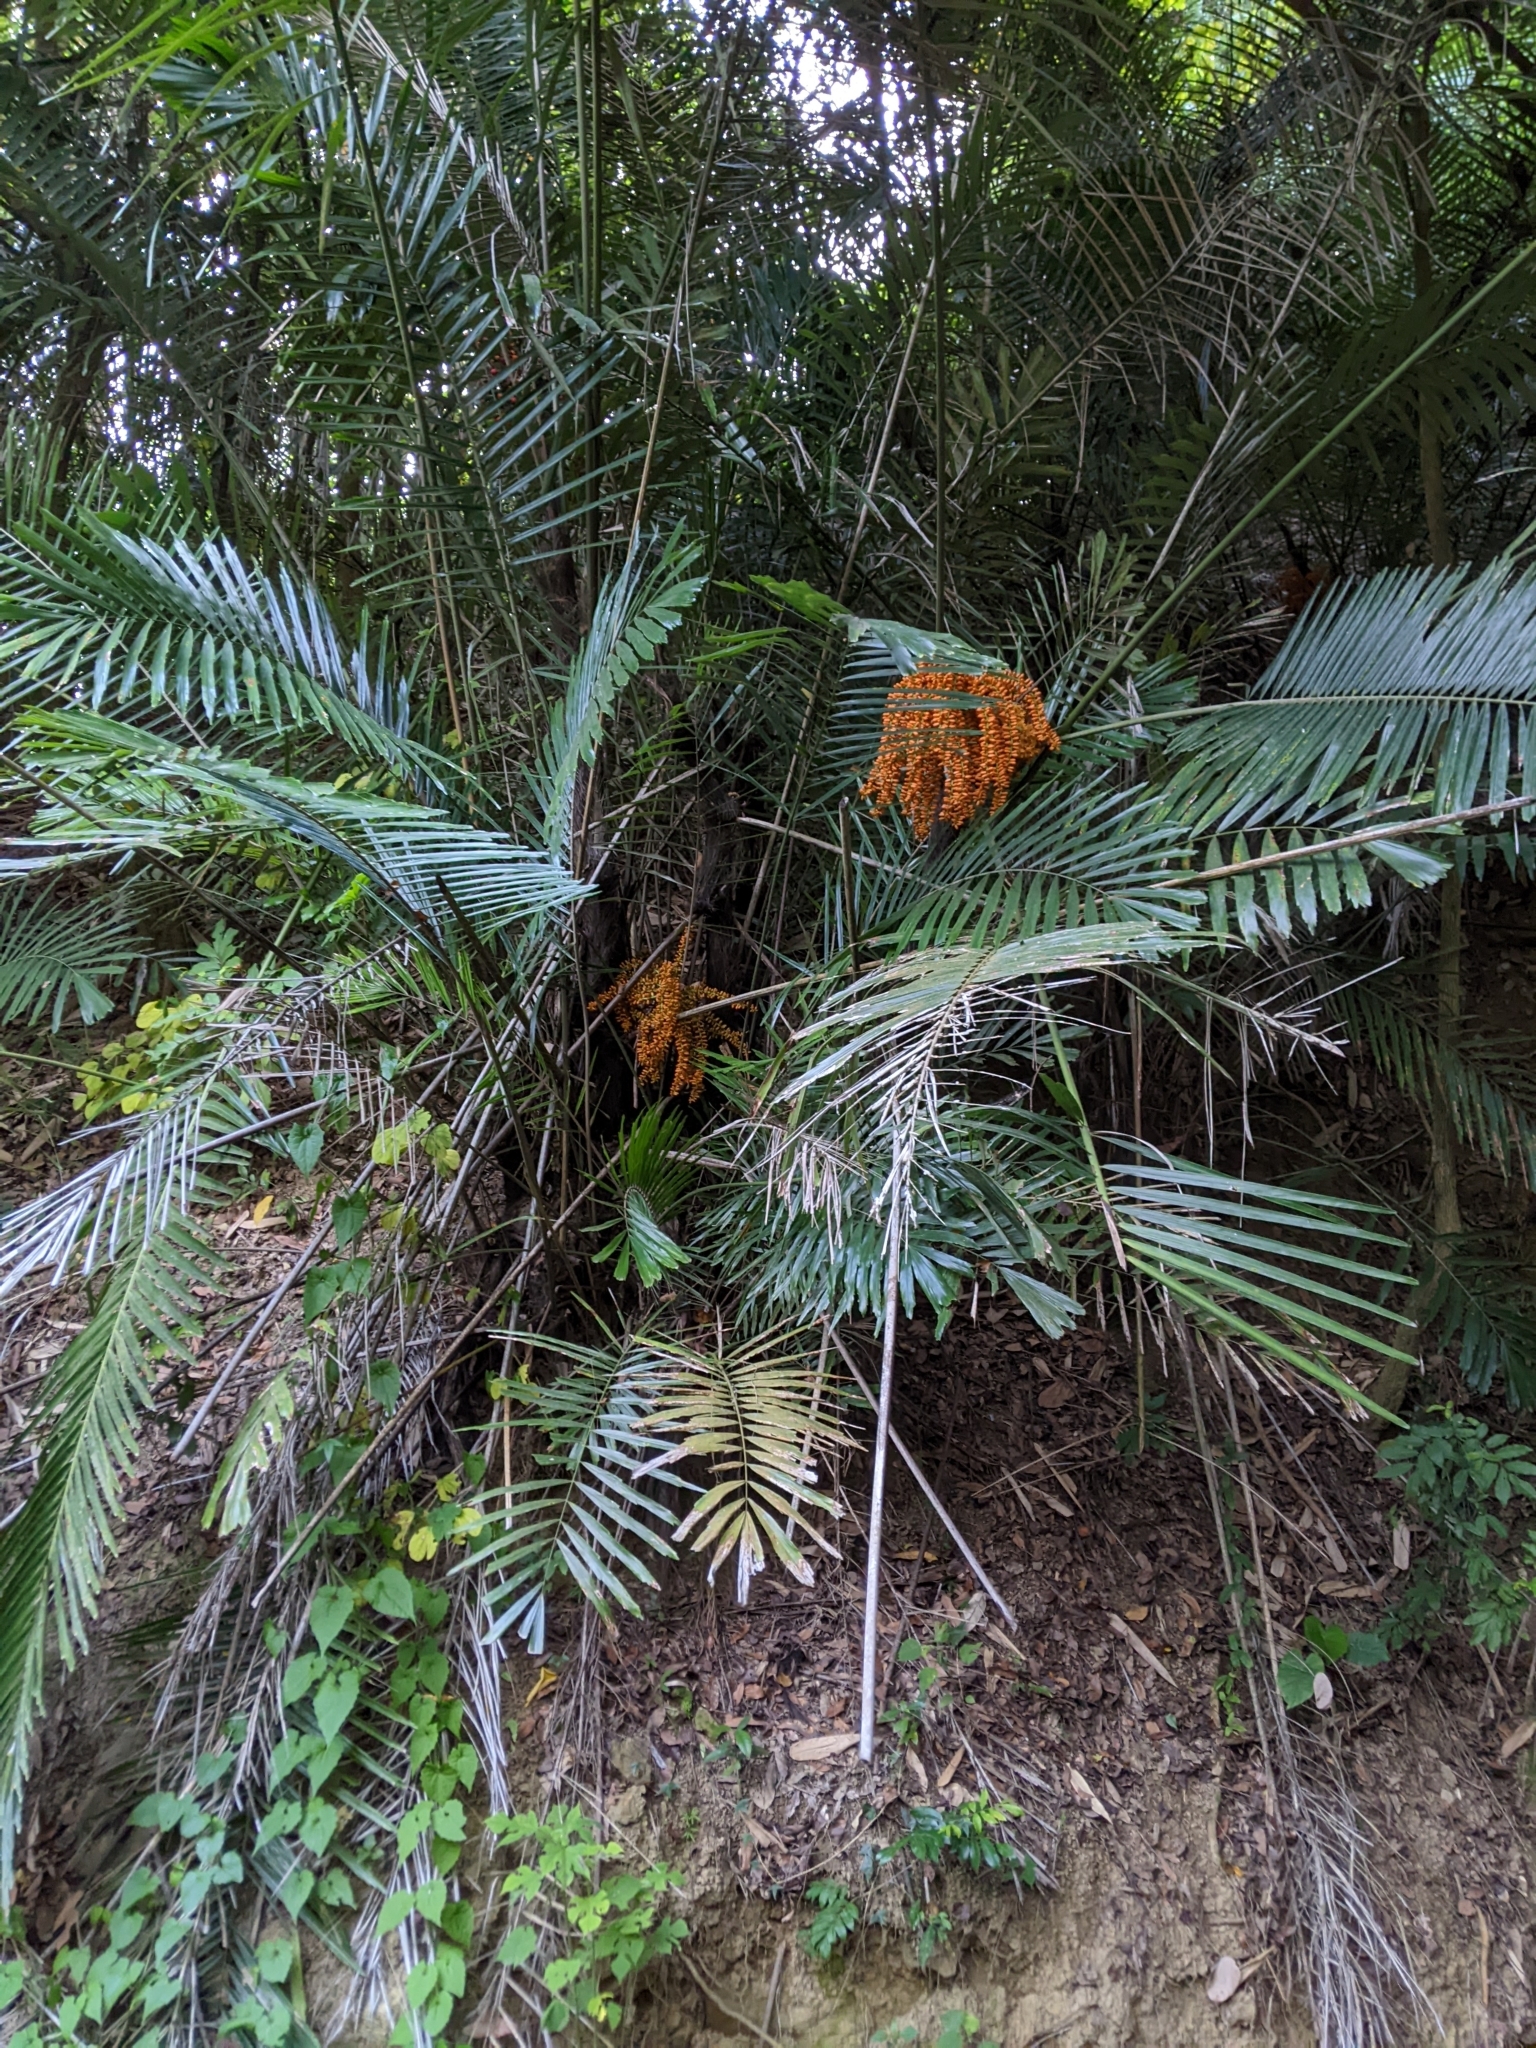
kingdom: Plantae
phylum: Tracheophyta
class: Liliopsida
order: Arecales
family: Arecaceae
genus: Arenga
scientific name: Arenga engleri
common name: Formosan sugar palm
